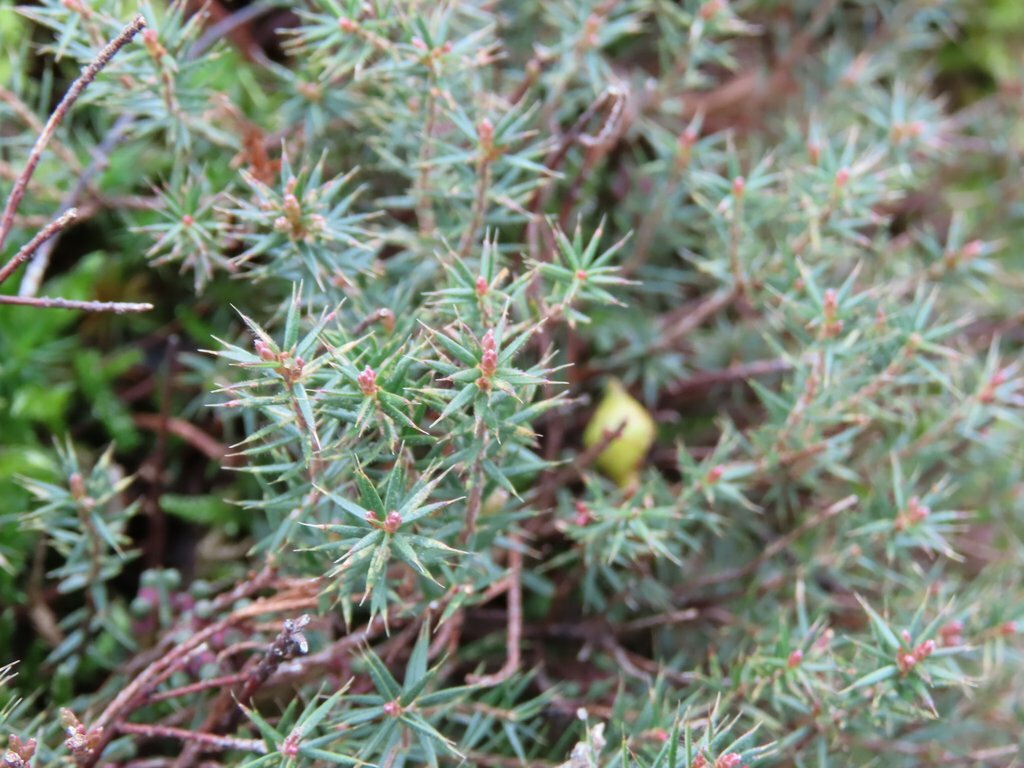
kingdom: Plantae
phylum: Tracheophyta
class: Magnoliopsida
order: Ericales
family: Ericaceae
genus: Styphelia
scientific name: Styphelia humifusa
